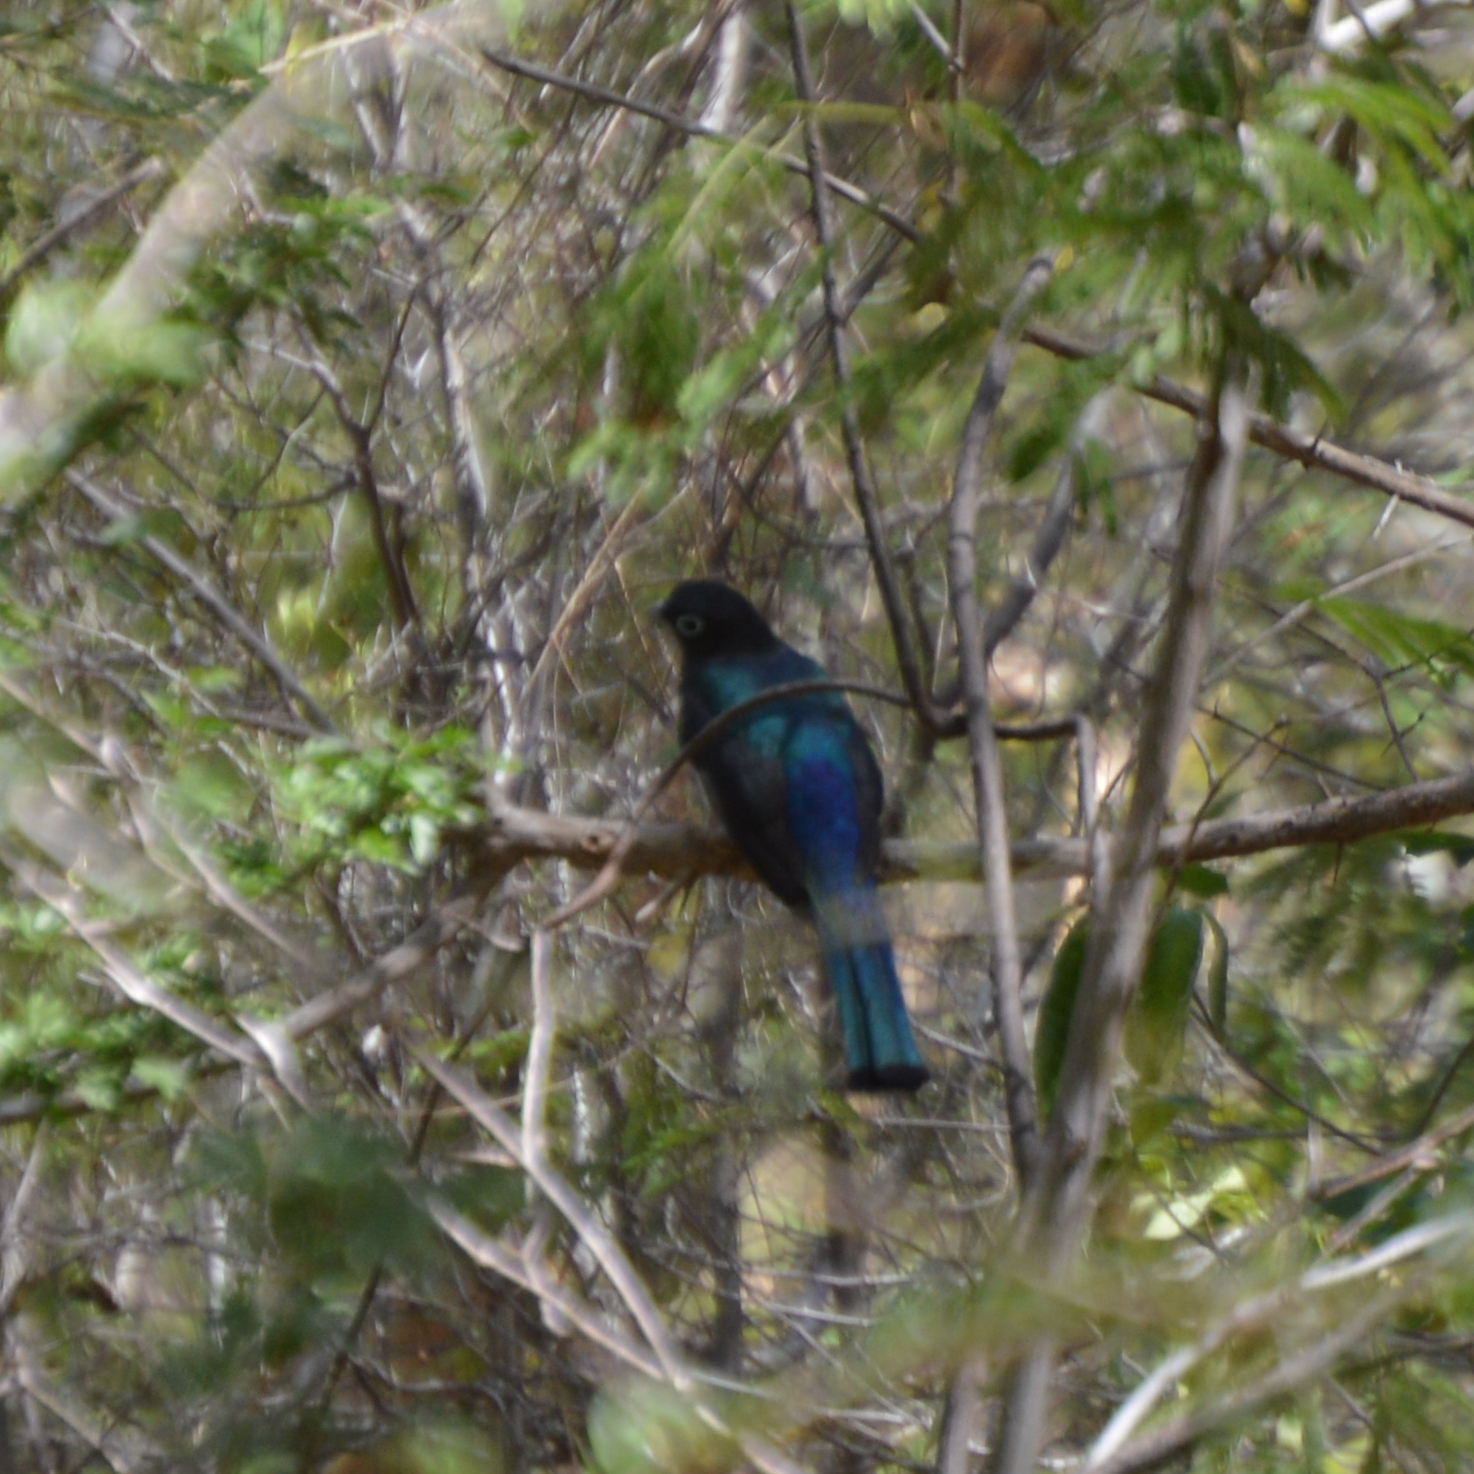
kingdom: Animalia
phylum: Chordata
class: Aves
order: Trogoniformes
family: Trogonidae
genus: Trogon
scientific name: Trogon melanocephalus
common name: Black-headed trogon
